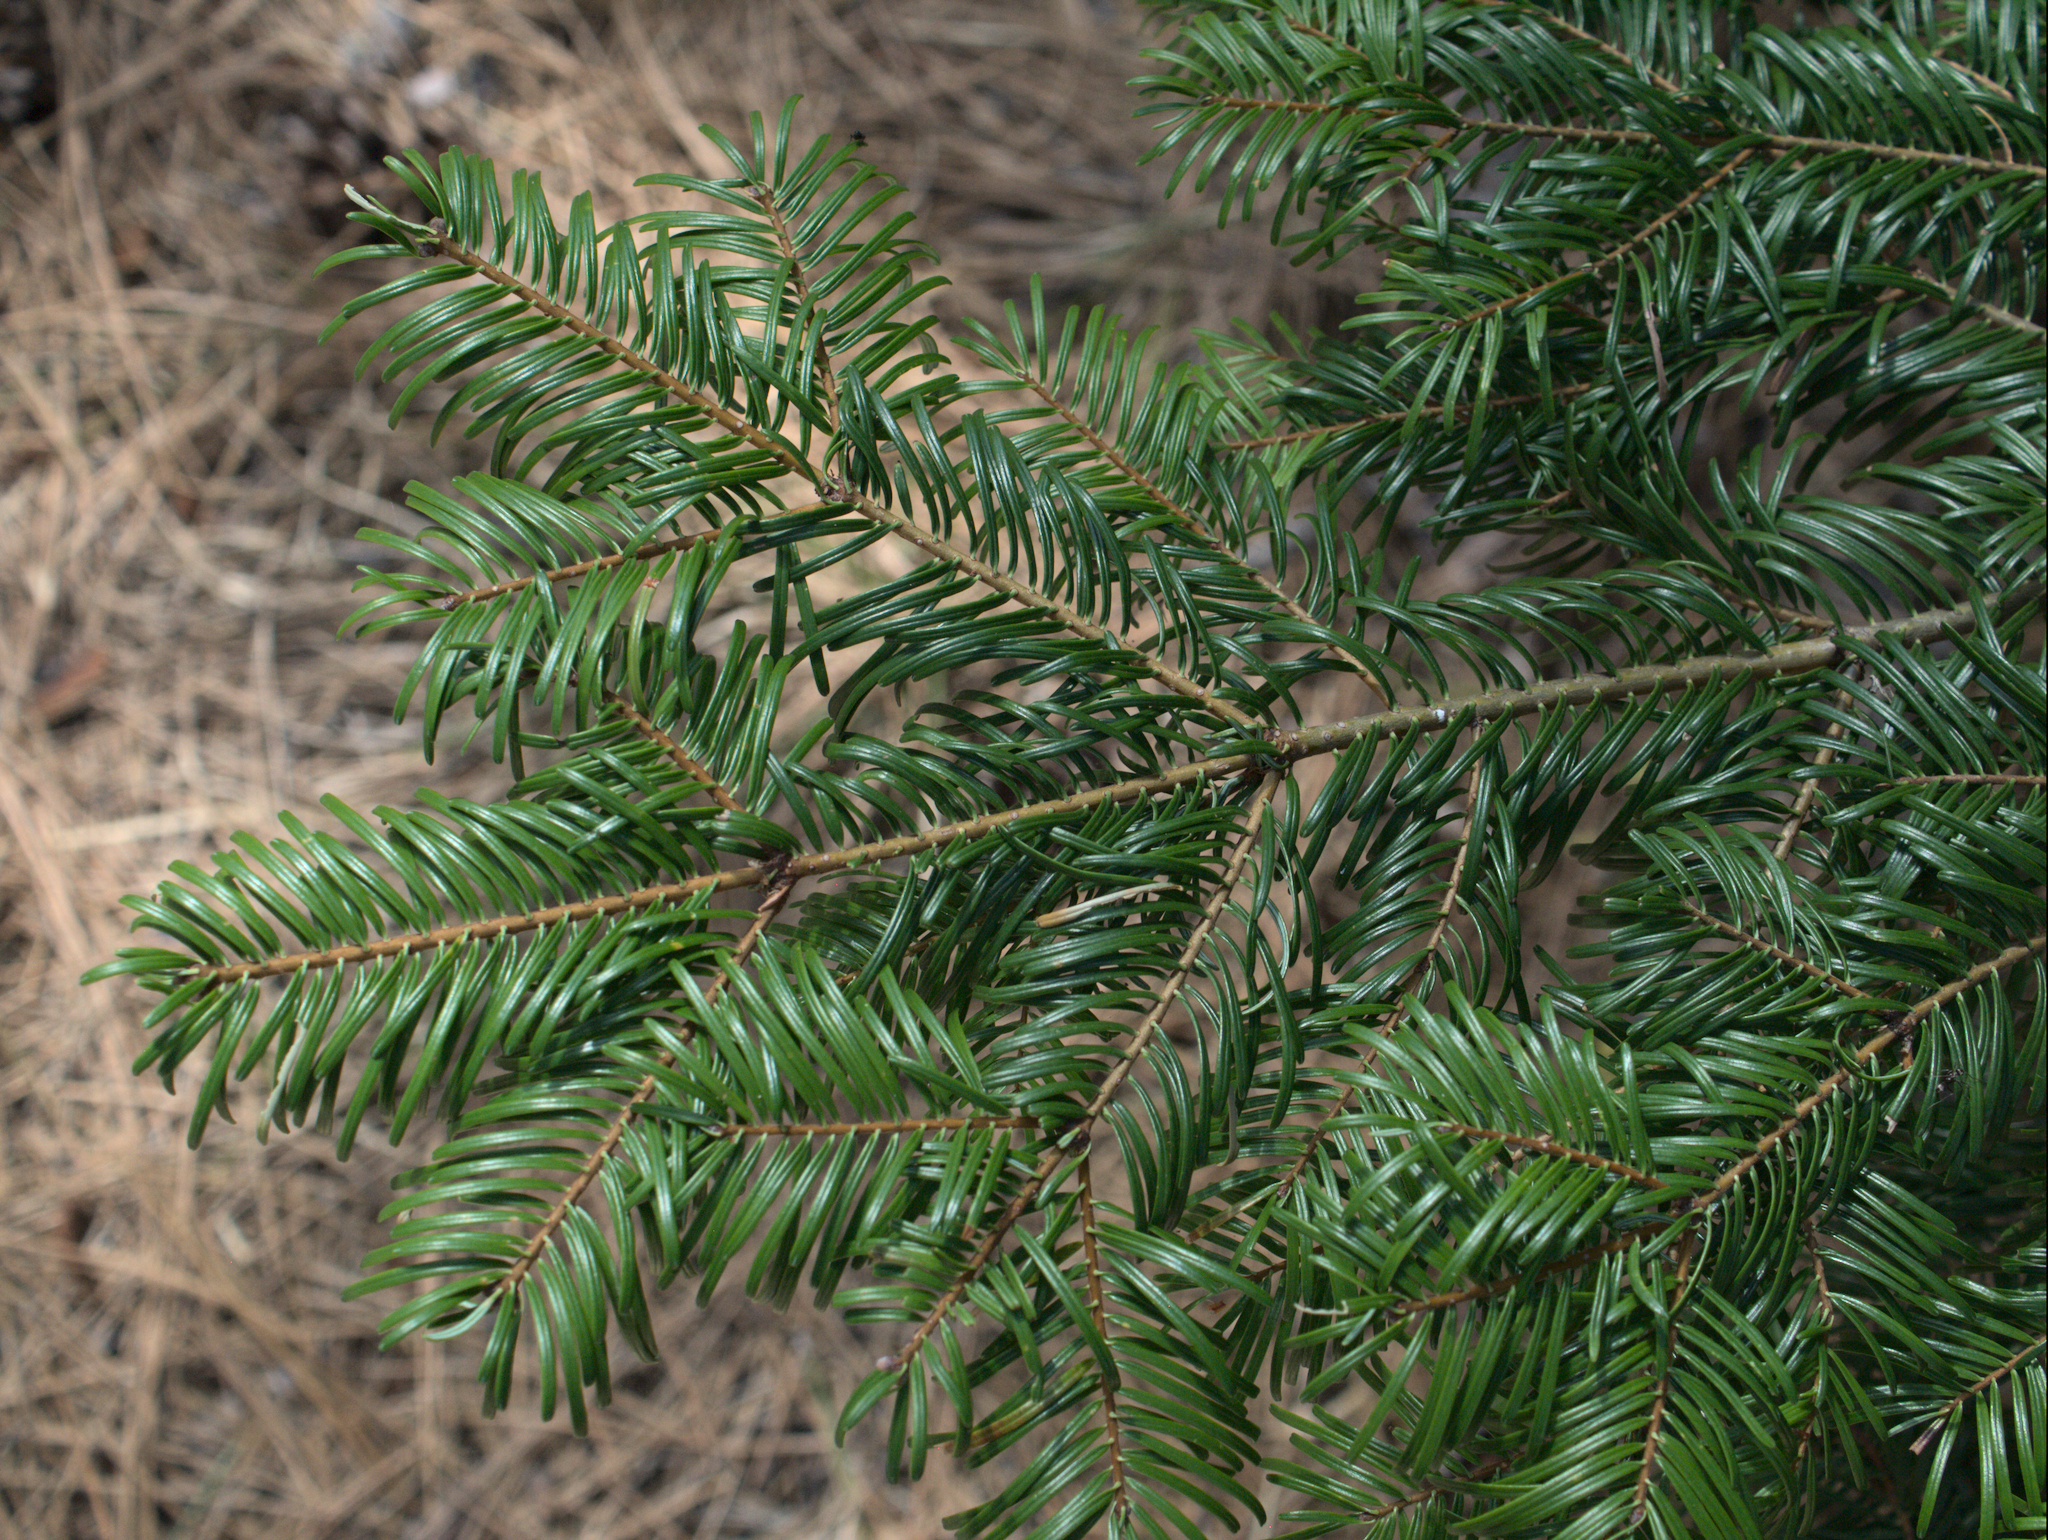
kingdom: Plantae
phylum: Tracheophyta
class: Pinopsida
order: Pinales
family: Pinaceae
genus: Abies
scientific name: Abies grandis
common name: Giant fir
